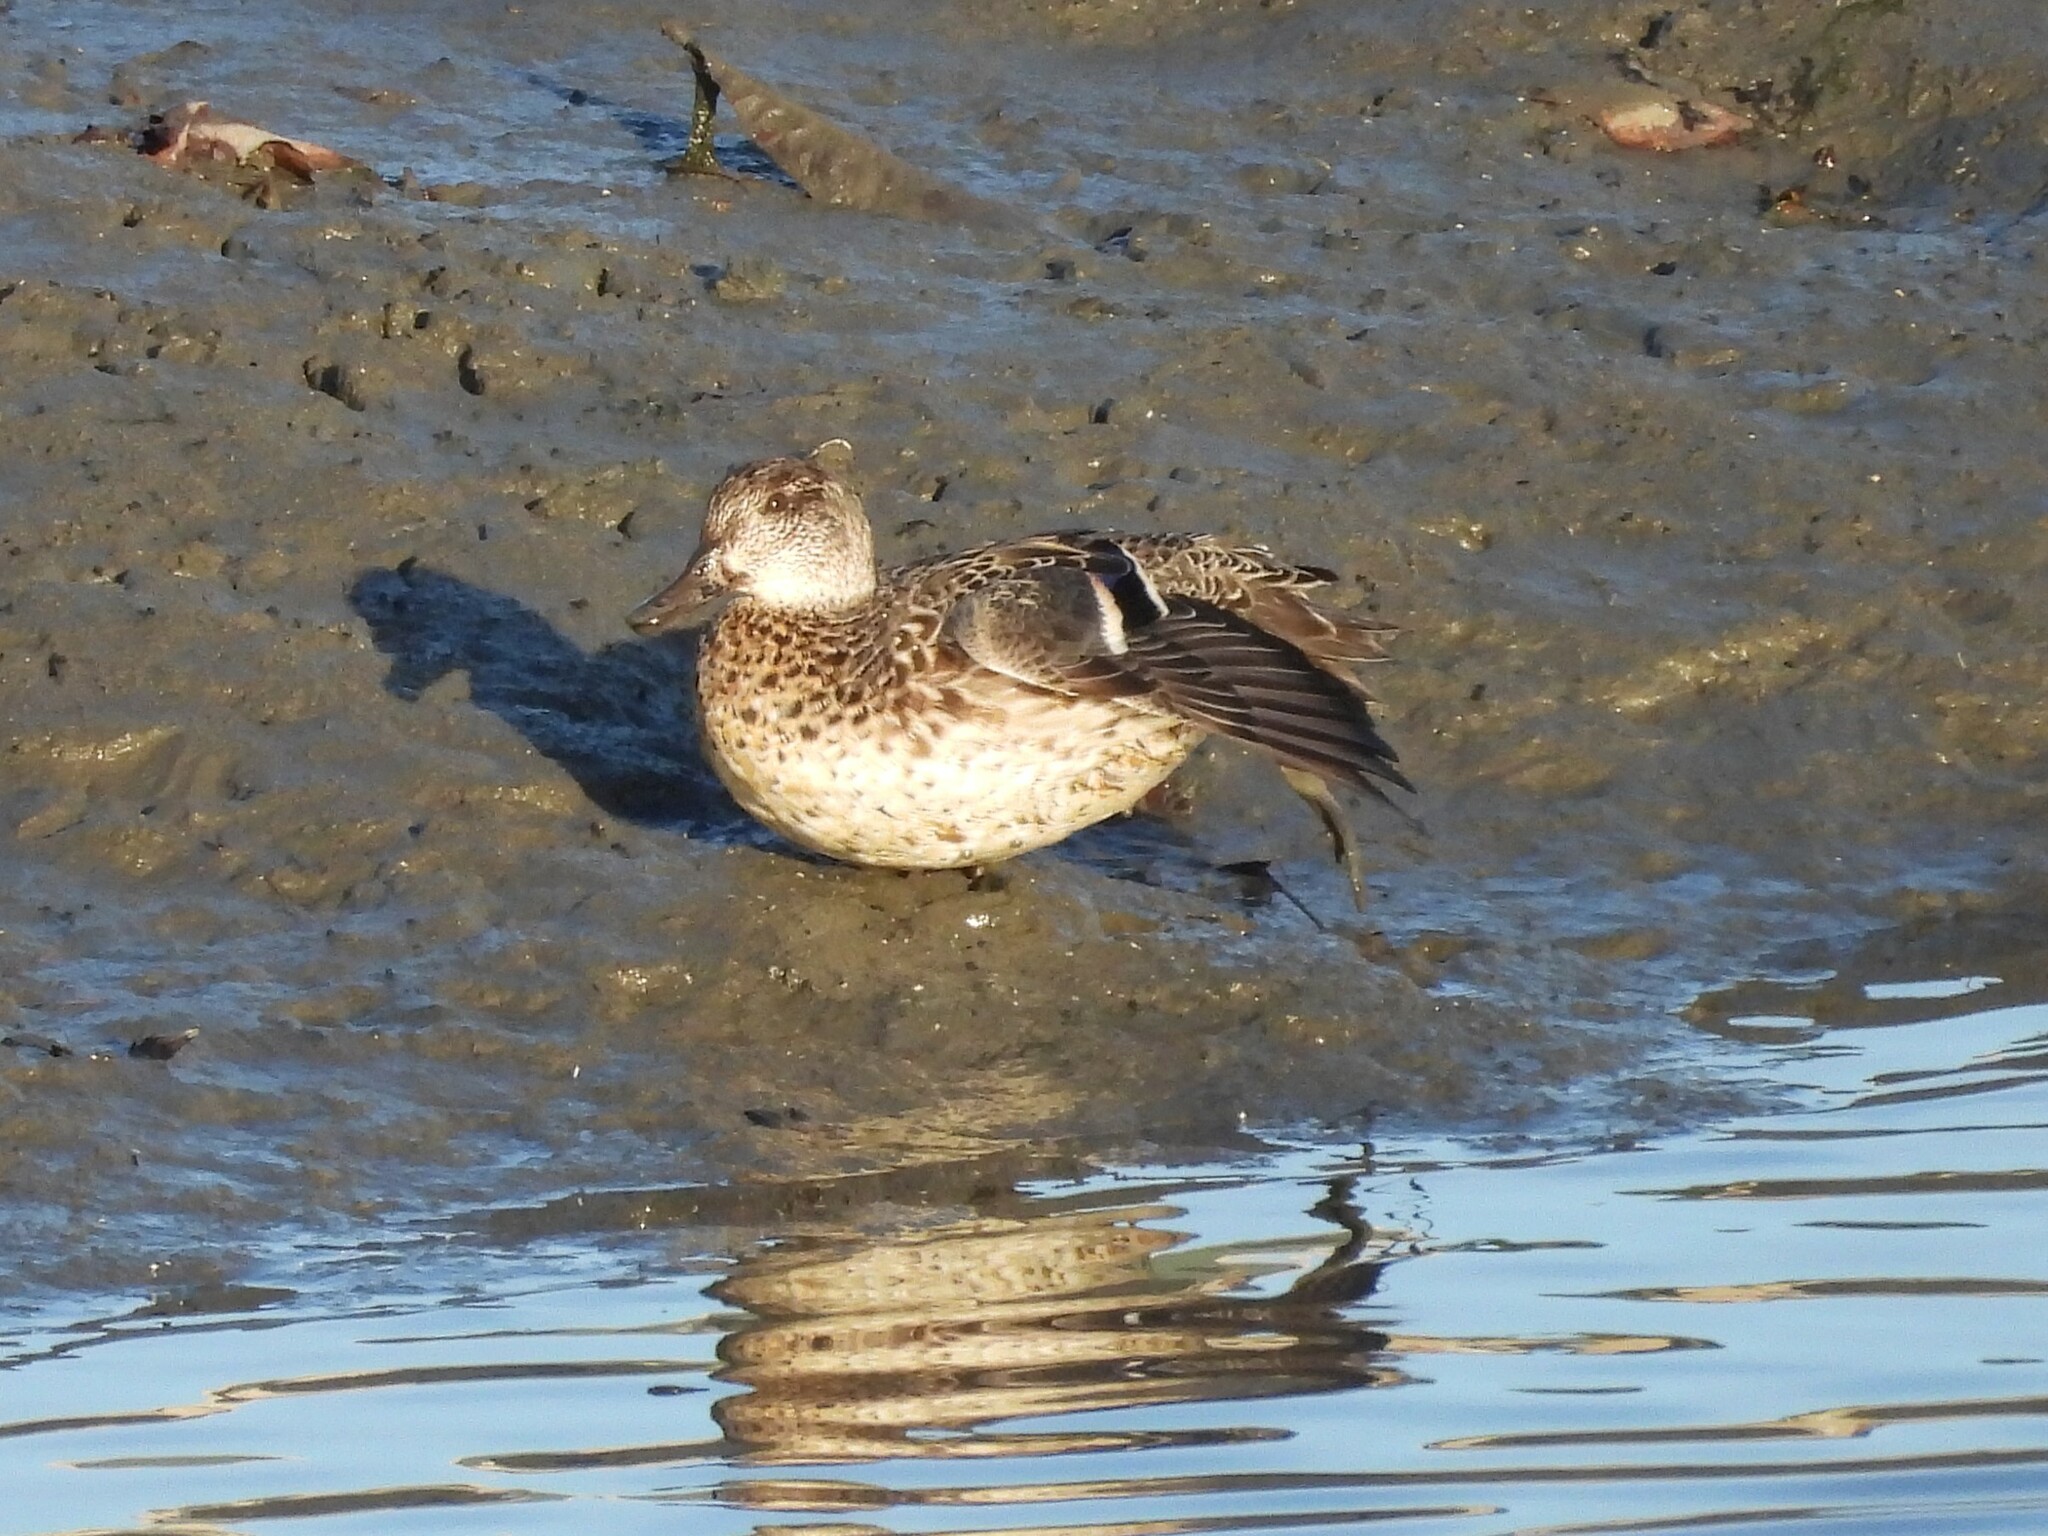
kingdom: Animalia
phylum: Chordata
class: Aves
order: Anseriformes
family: Anatidae
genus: Anas
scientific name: Anas crecca
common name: Eurasian teal
